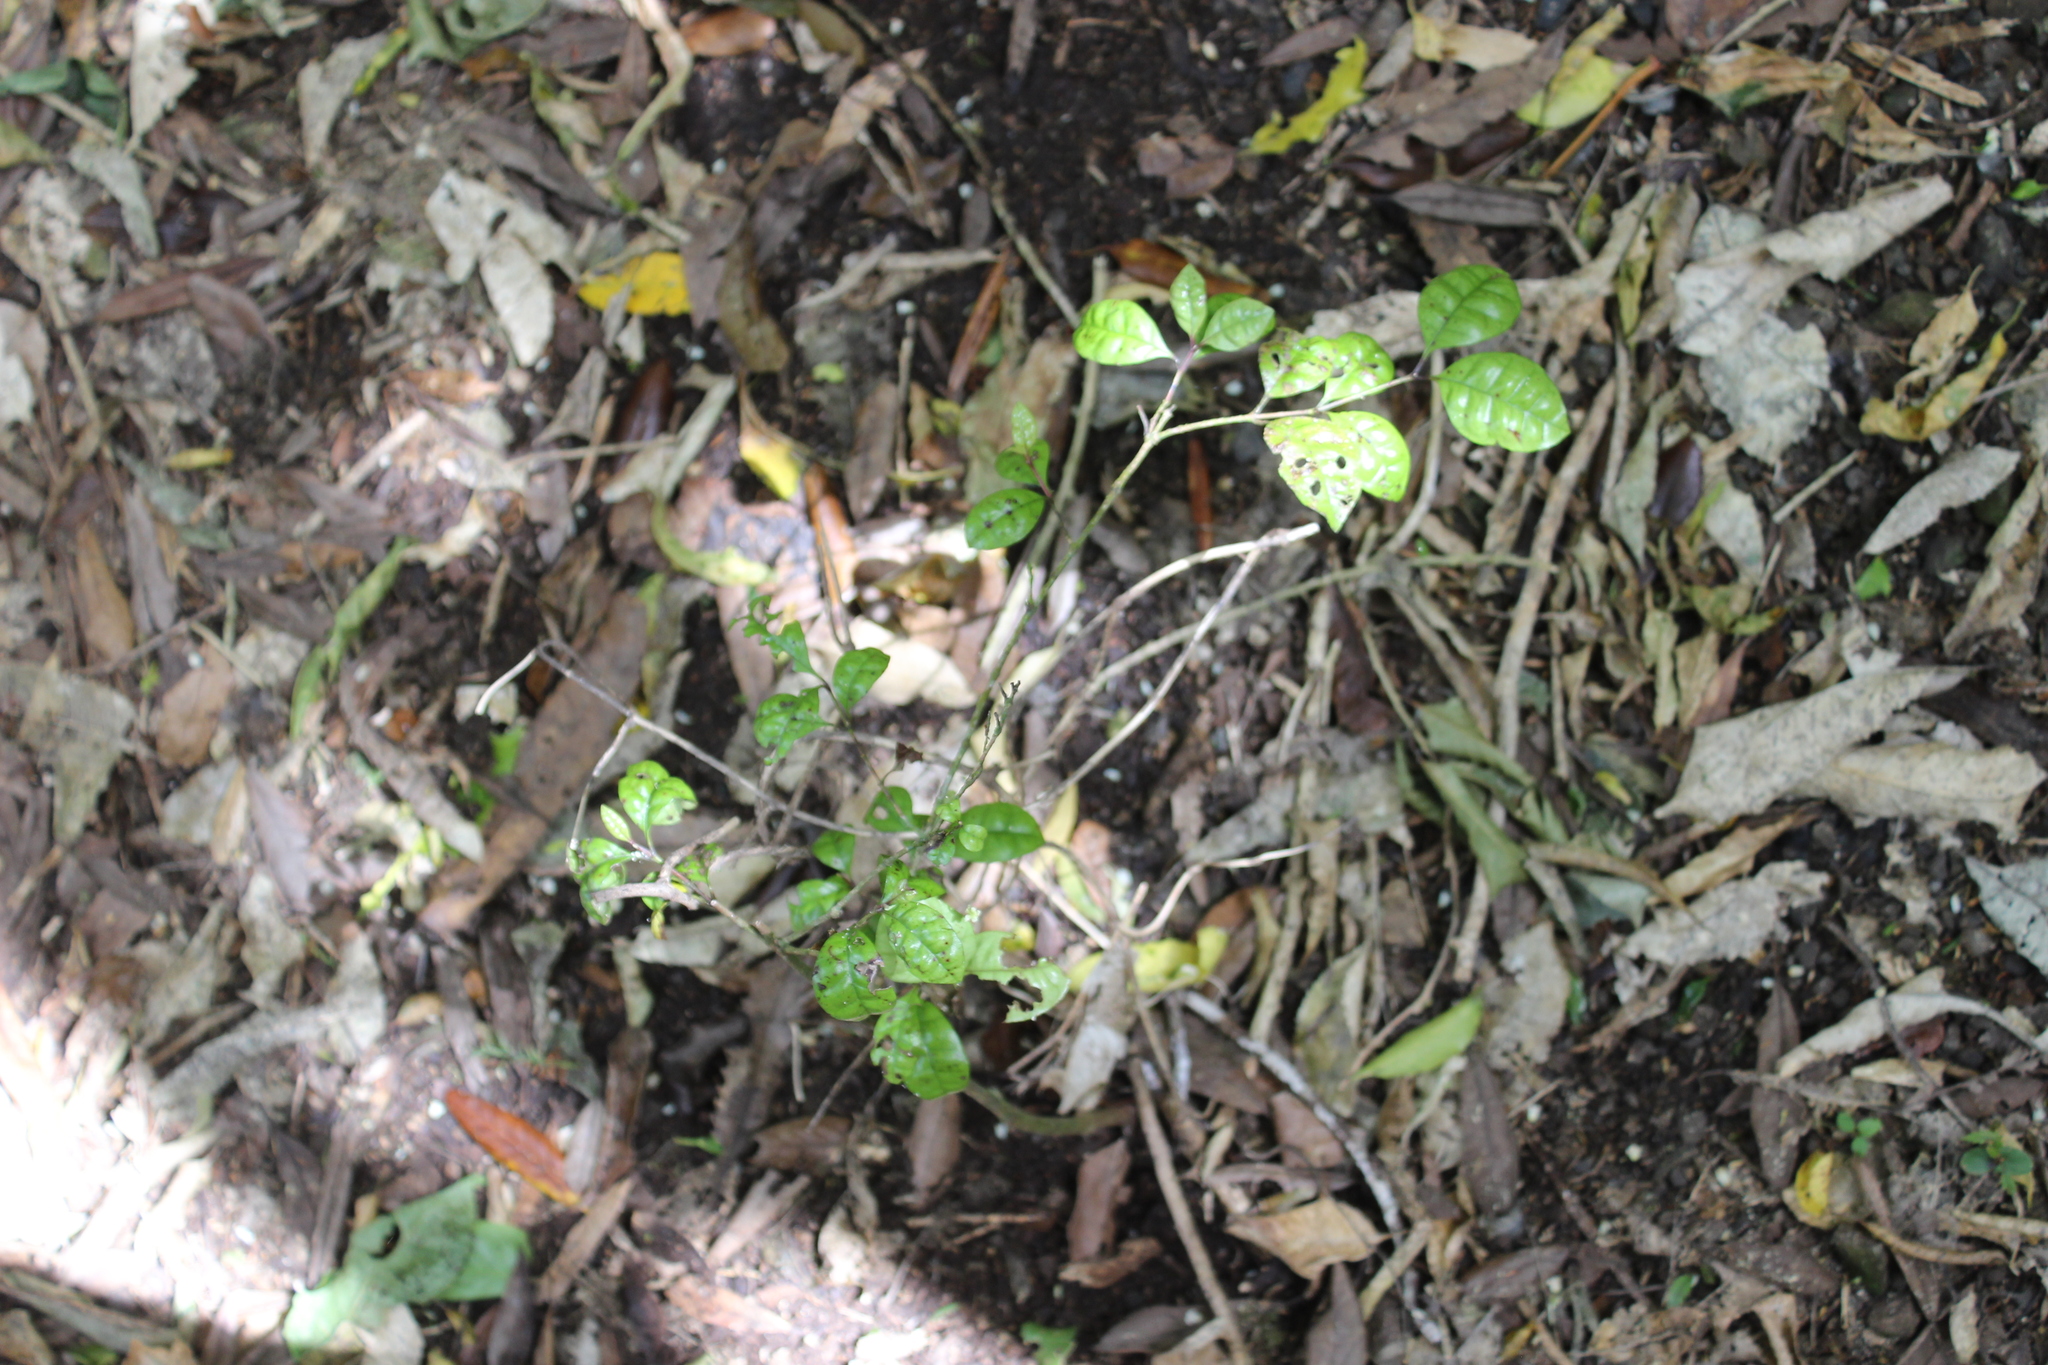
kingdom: Plantae
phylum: Tracheophyta
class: Magnoliopsida
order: Myrtales
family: Myrtaceae
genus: Lophomyrtus
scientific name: Lophomyrtus bullata
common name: Rama rama
